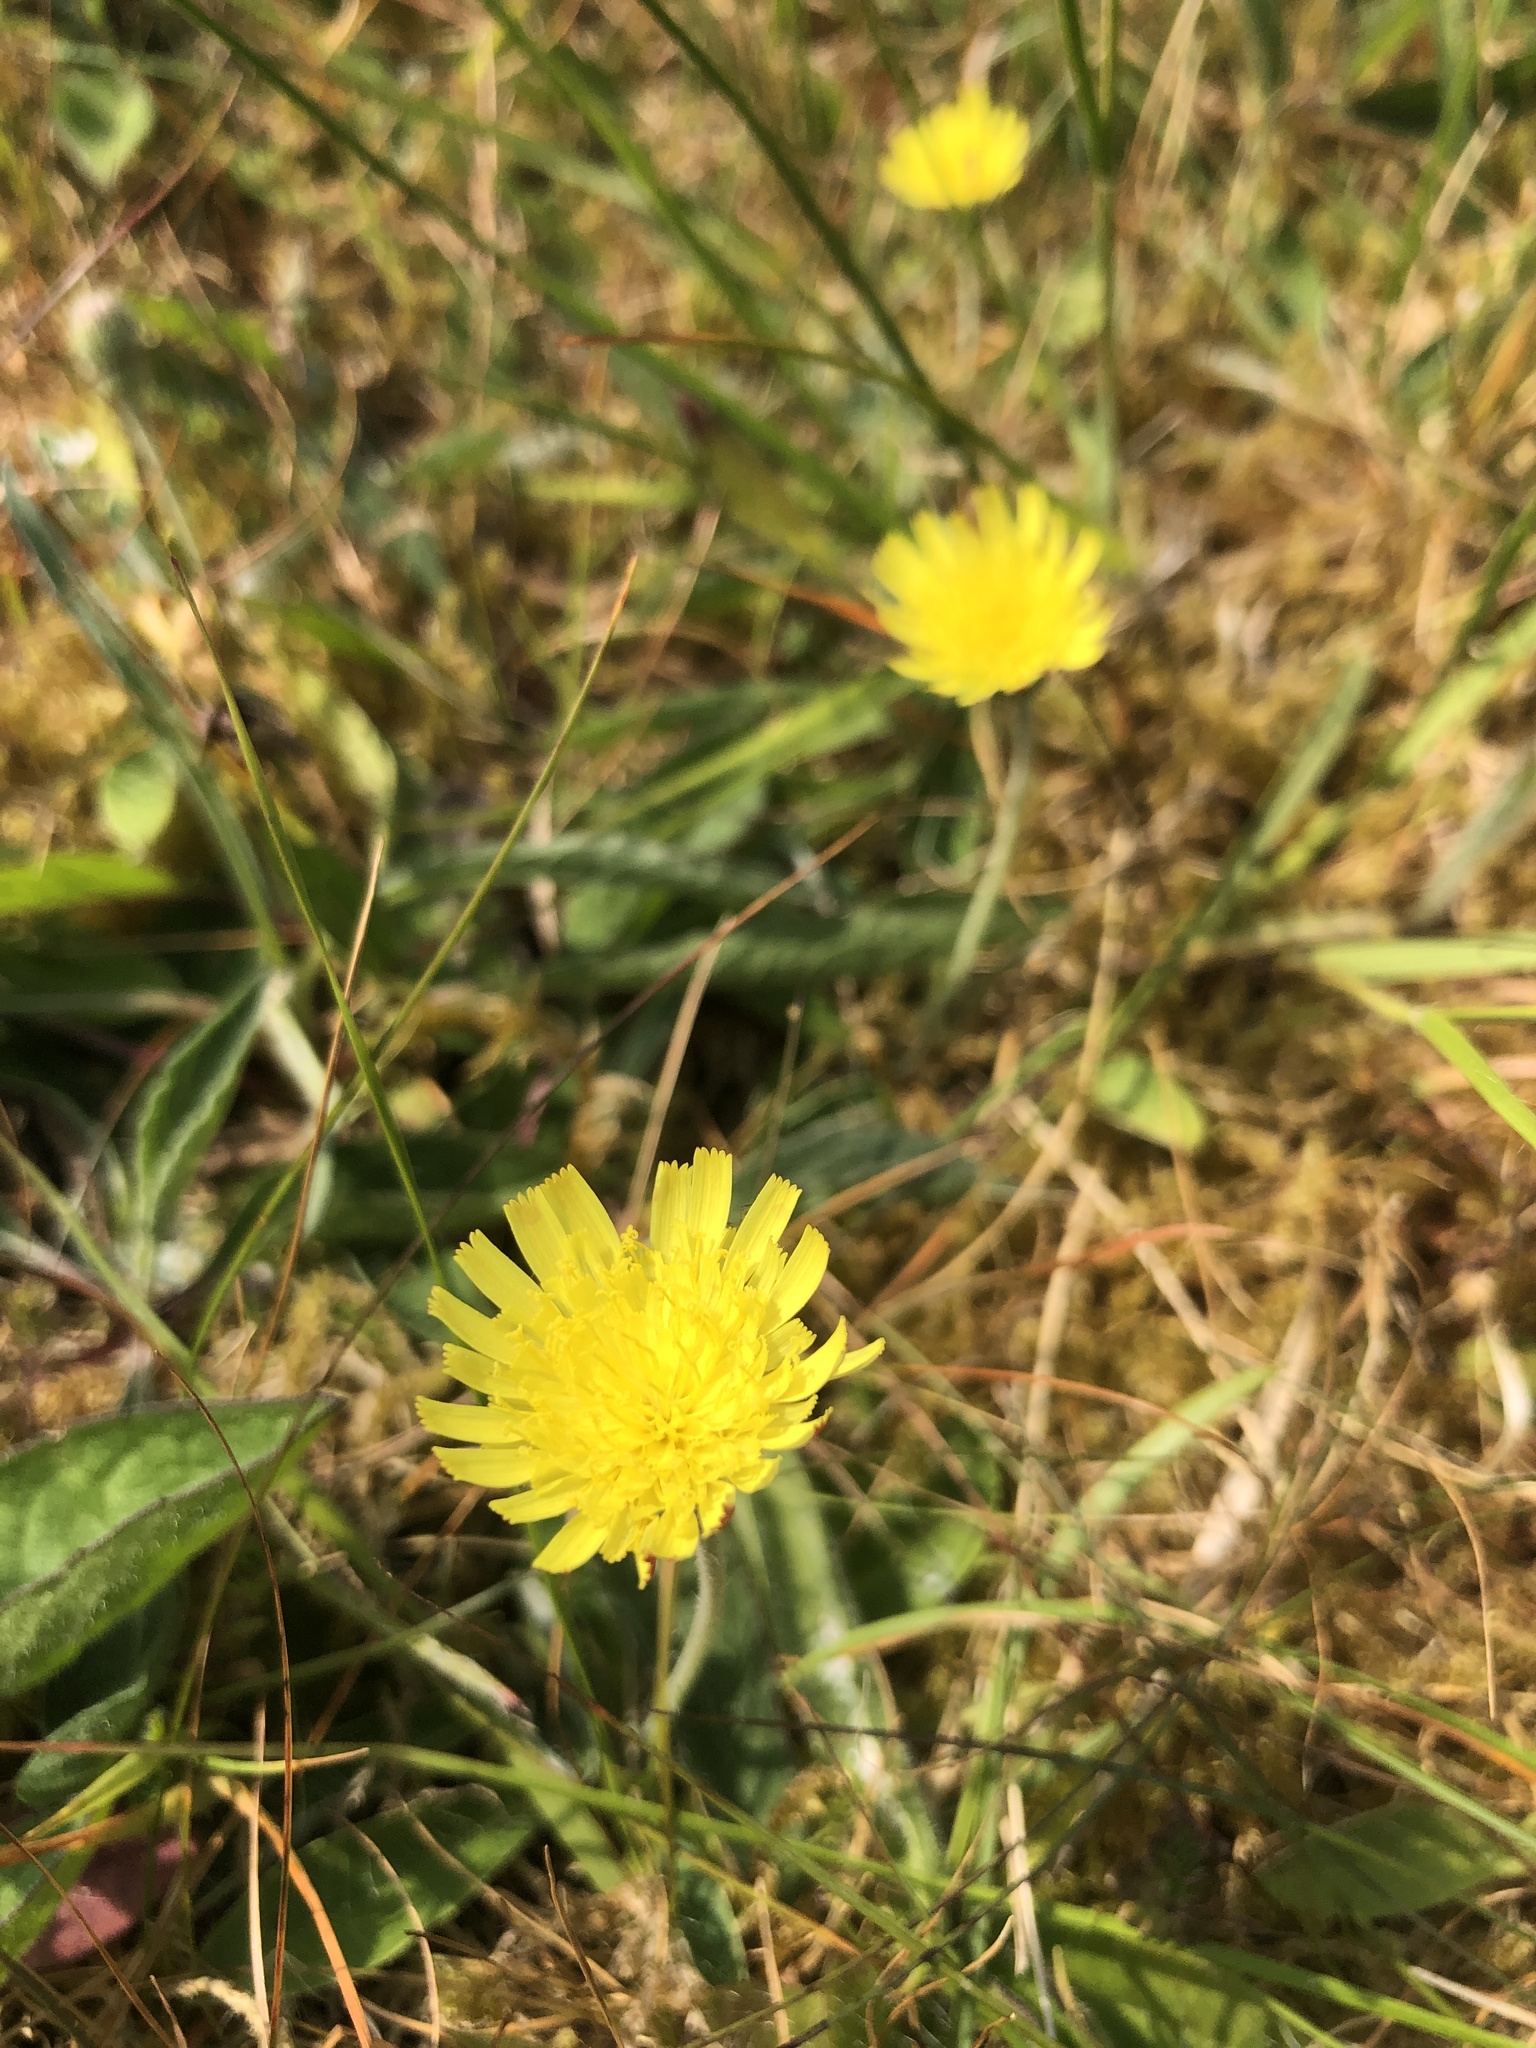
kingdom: Plantae
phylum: Tracheophyta
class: Magnoliopsida
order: Asterales
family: Asteraceae
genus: Pilosella
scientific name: Pilosella officinarum
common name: Mouse-ear hawkweed
